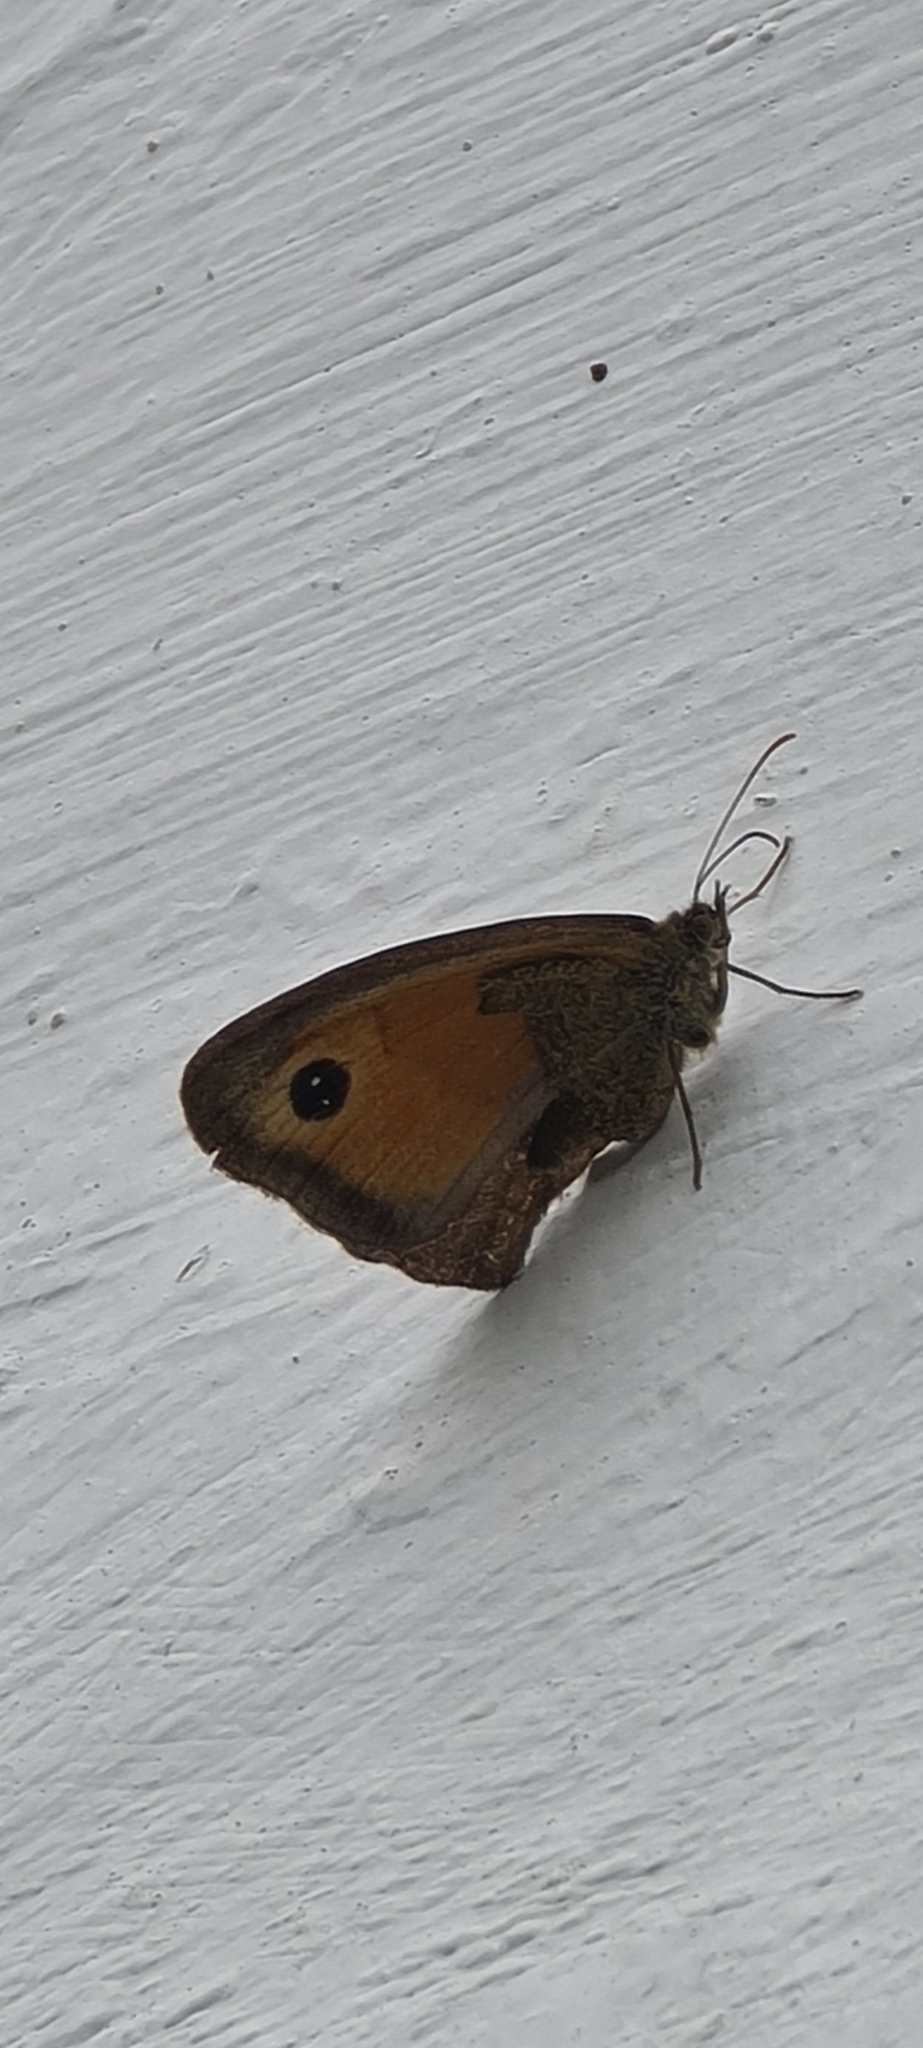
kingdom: Animalia
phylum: Arthropoda
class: Insecta
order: Lepidoptera
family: Nymphalidae
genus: Pyronia
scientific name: Pyronia tithonus
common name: Gatekeeper
